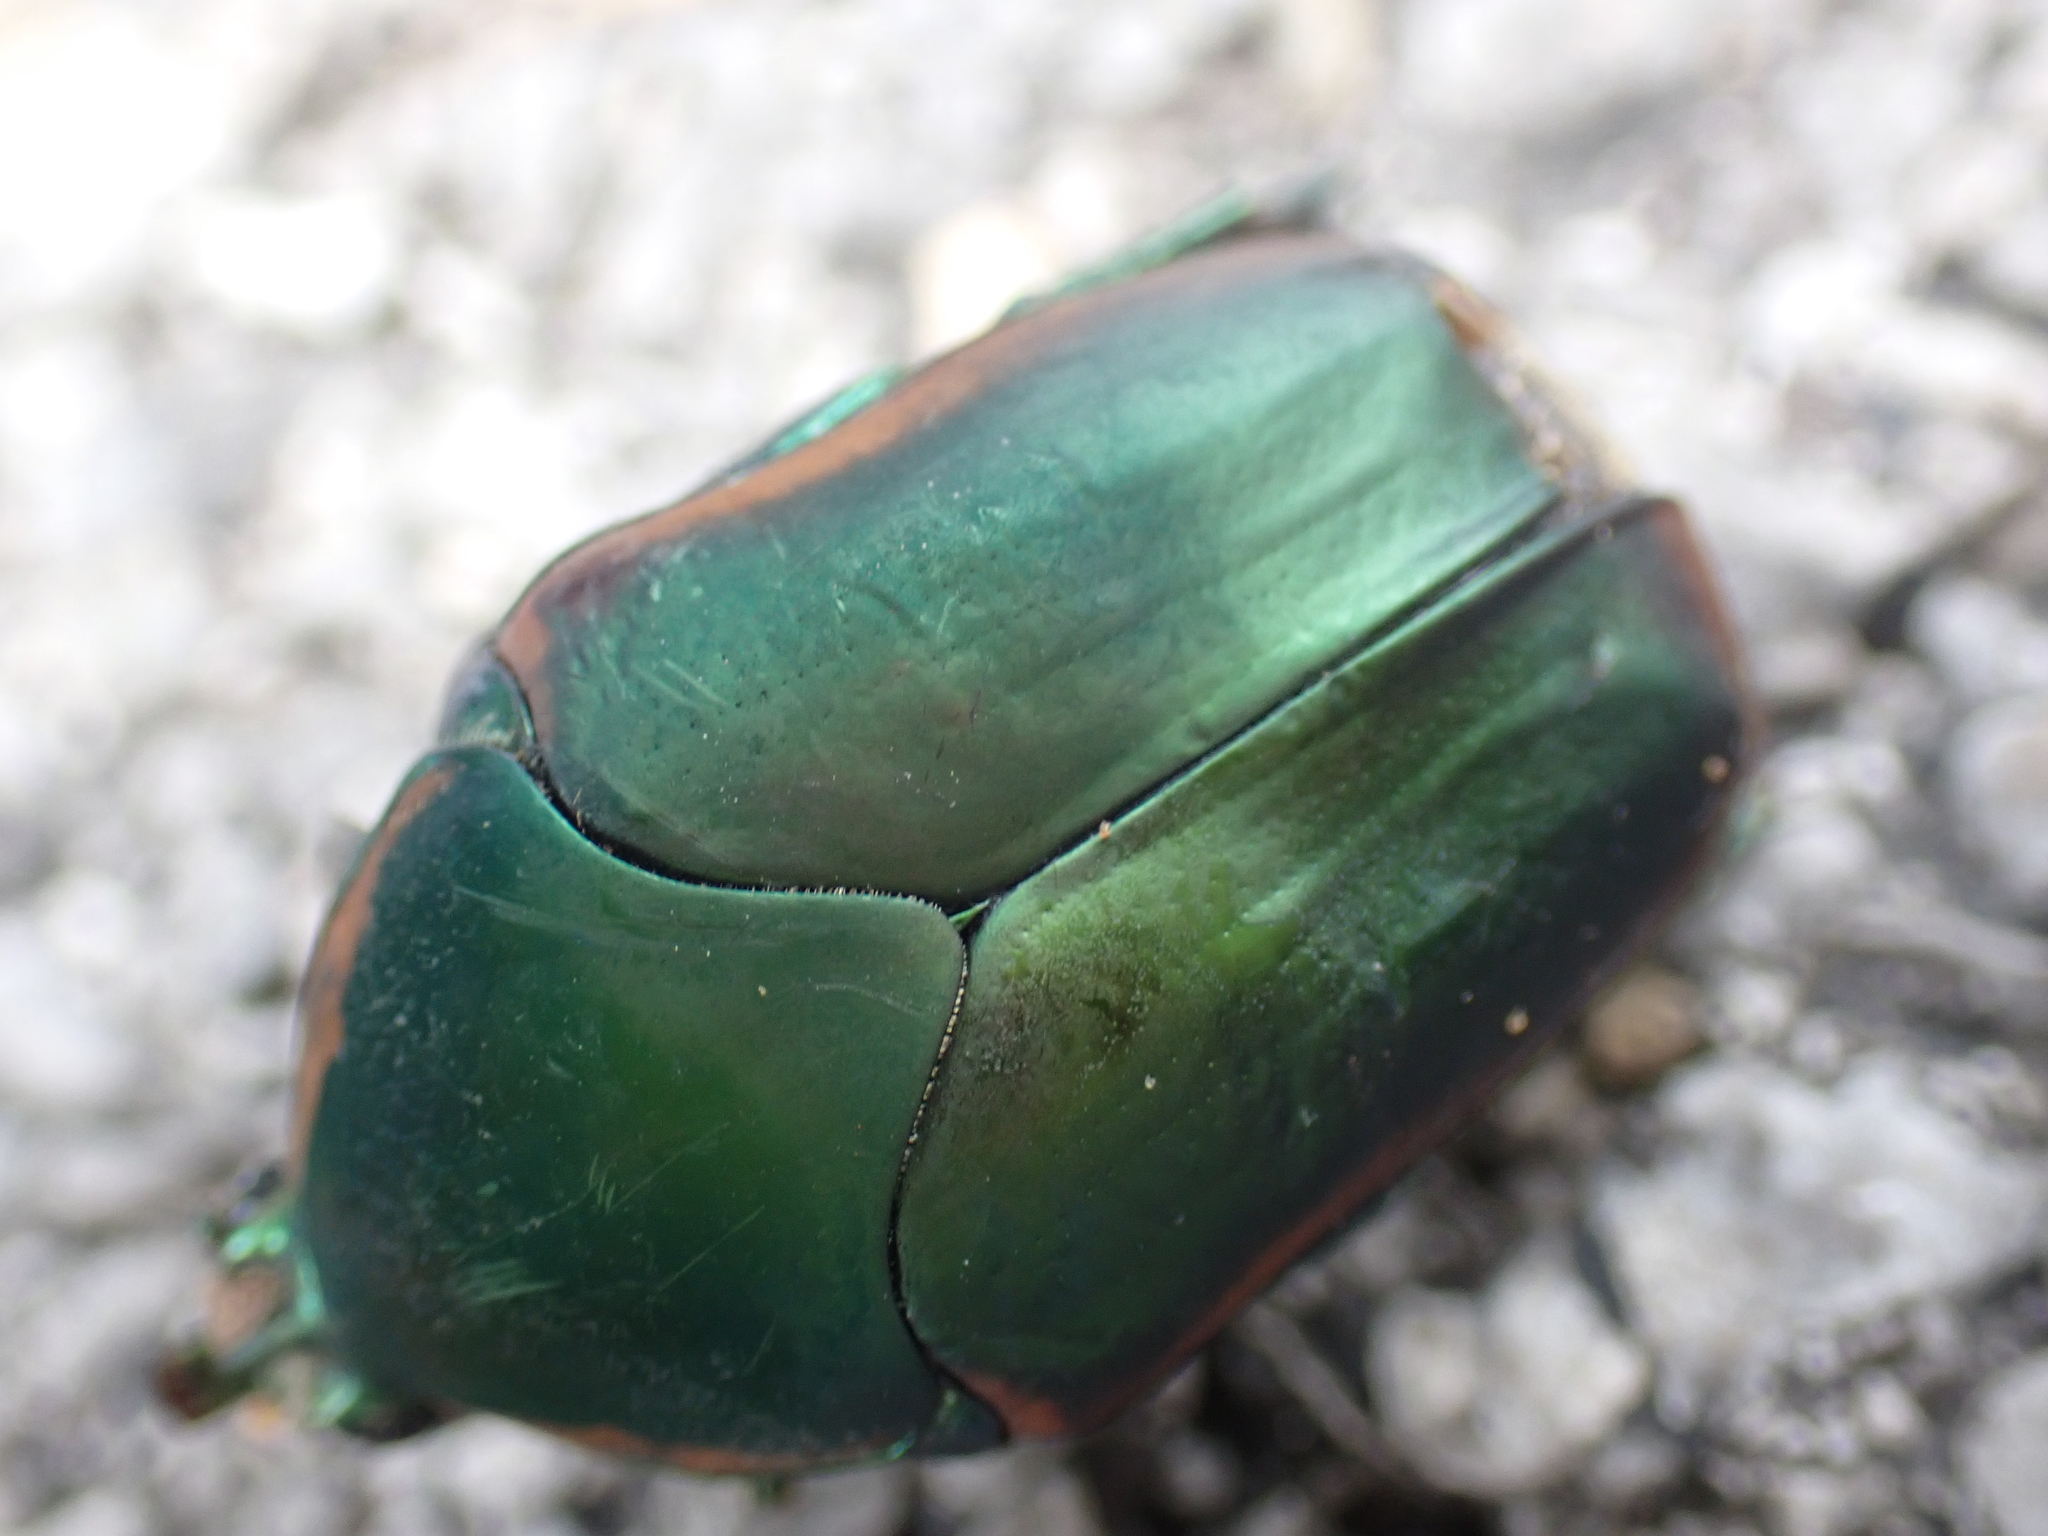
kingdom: Animalia
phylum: Arthropoda
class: Insecta
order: Coleoptera
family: Scarabaeidae
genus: Cotinis
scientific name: Cotinis nitida
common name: Common green june beetle
